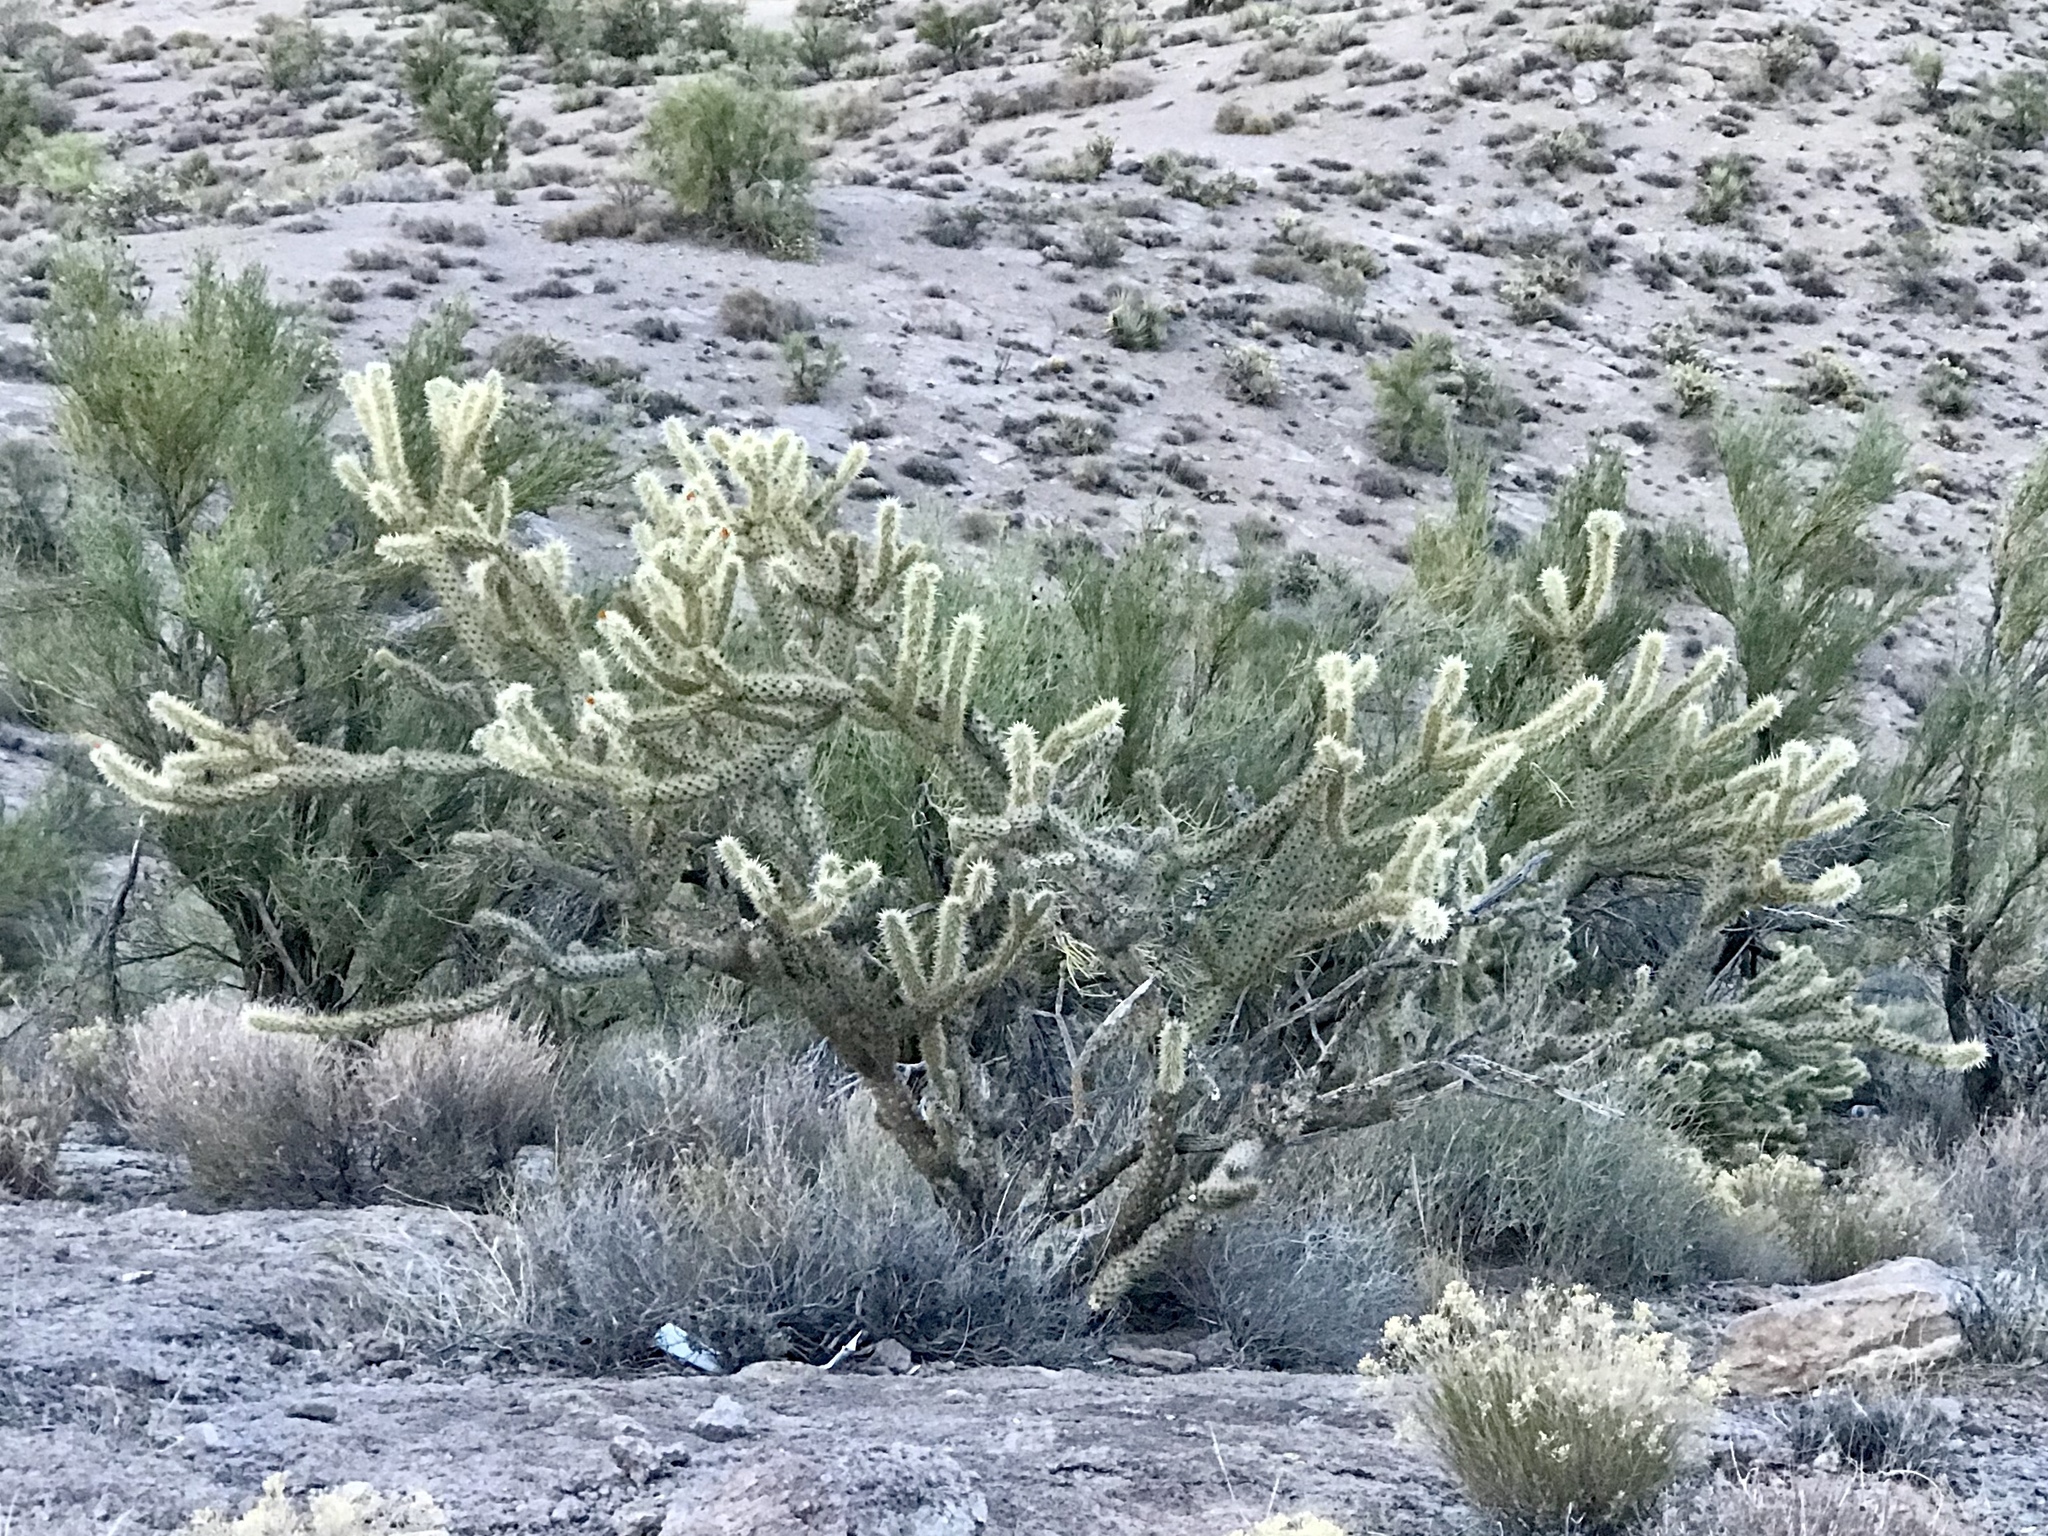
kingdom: Plantae
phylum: Tracheophyta
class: Magnoliopsida
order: Caryophyllales
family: Cactaceae
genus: Cylindropuntia
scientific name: Cylindropuntia acanthocarpa
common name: Buckhorn cholla
